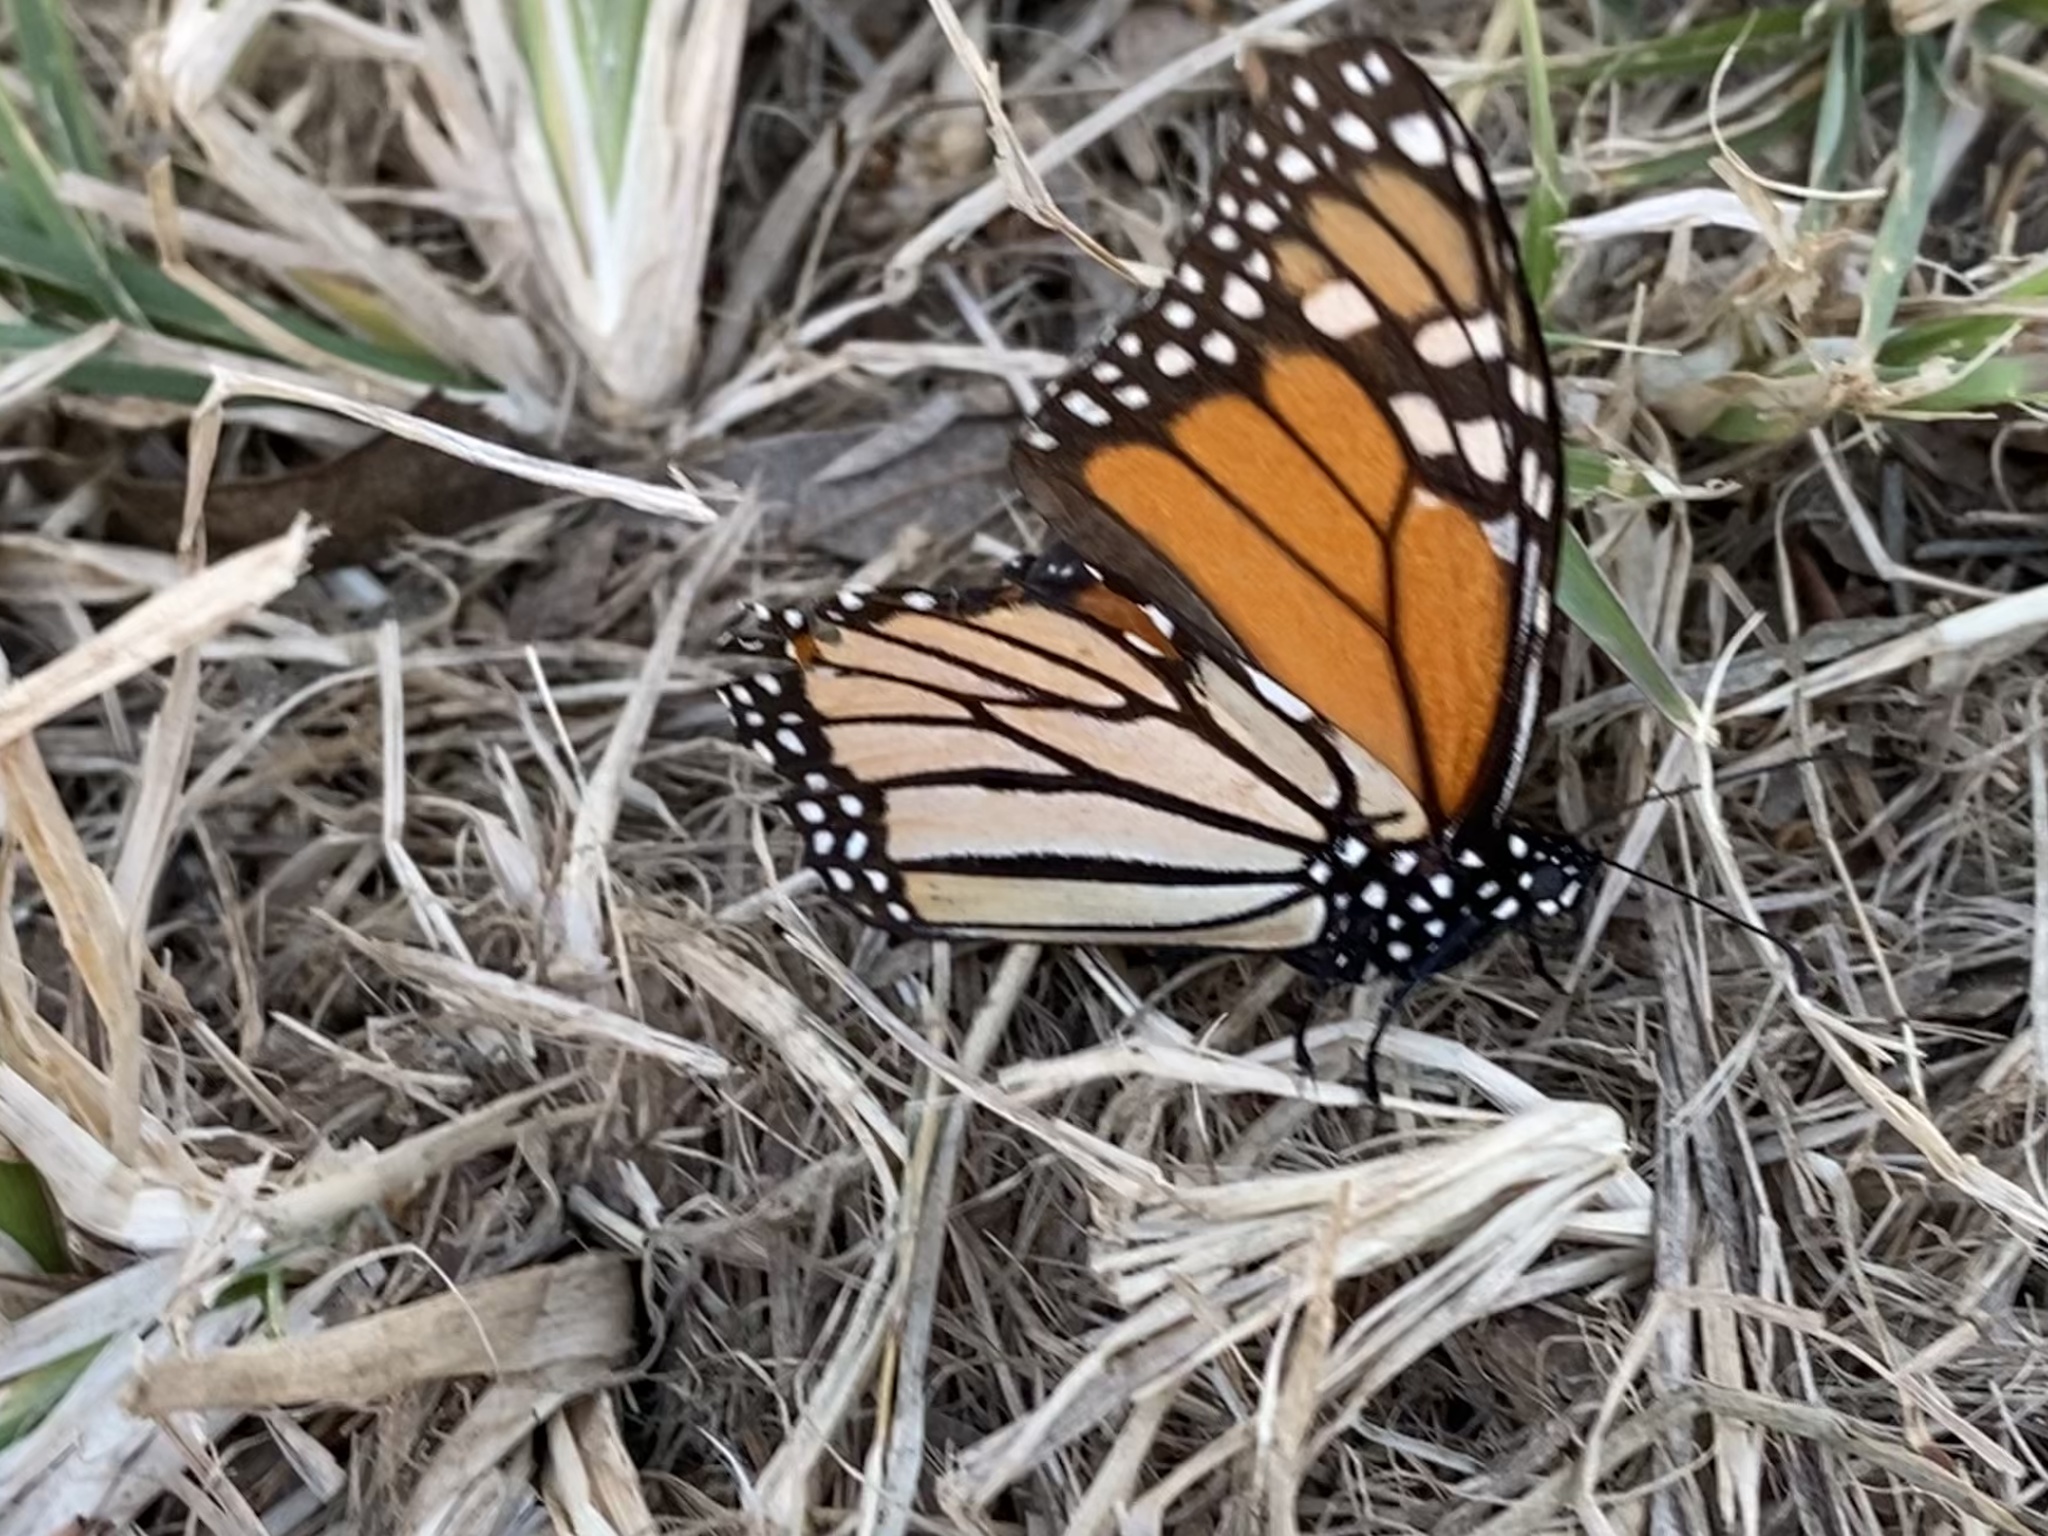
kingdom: Animalia
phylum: Arthropoda
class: Insecta
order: Lepidoptera
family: Nymphalidae
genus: Danaus
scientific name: Danaus plexippus
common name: Monarch
